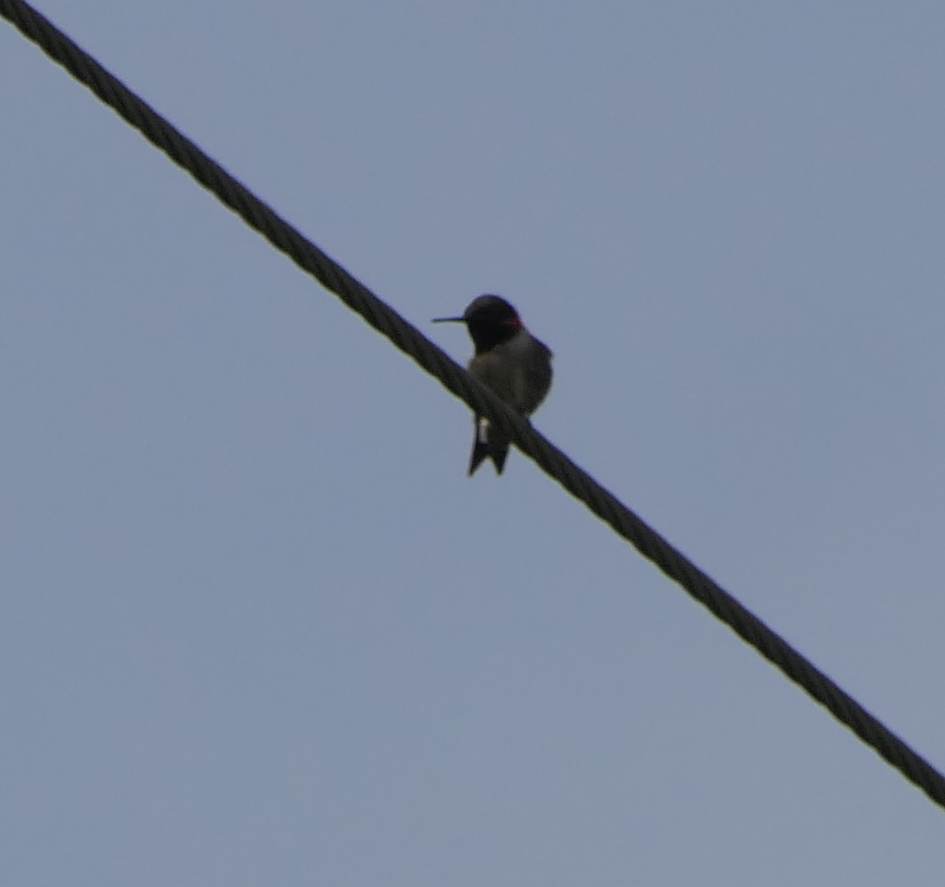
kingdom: Animalia
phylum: Chordata
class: Aves
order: Apodiformes
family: Trochilidae
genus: Archilochus
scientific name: Archilochus colubris
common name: Ruby-throated hummingbird
